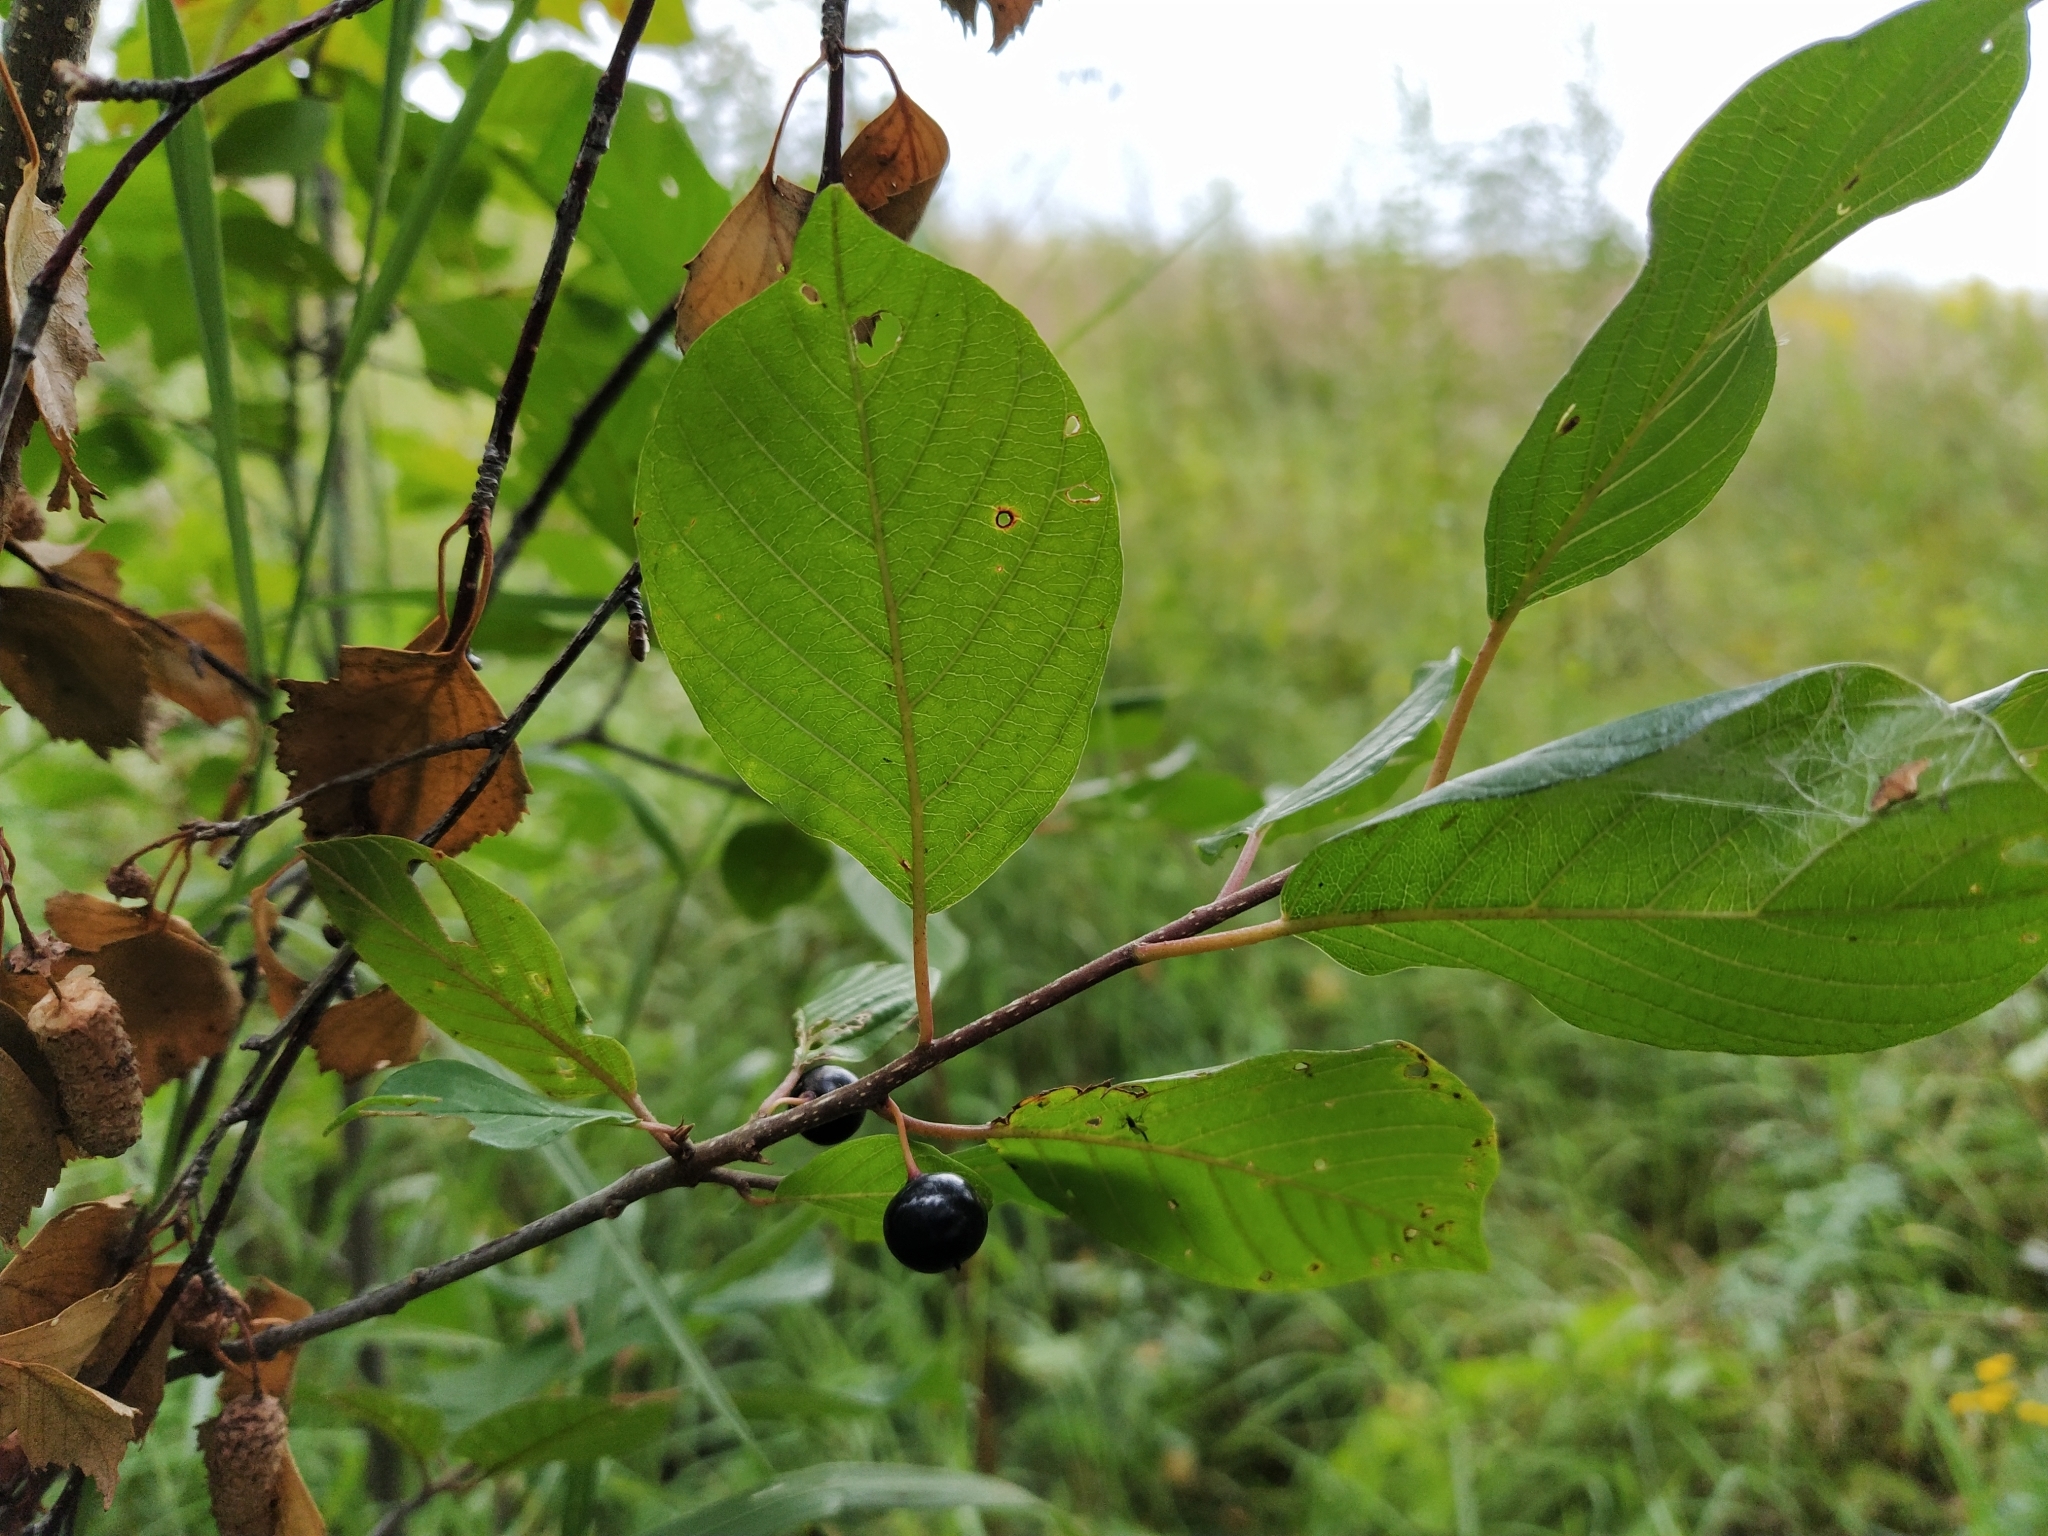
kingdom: Plantae
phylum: Tracheophyta
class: Magnoliopsida
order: Rosales
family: Rhamnaceae
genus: Frangula
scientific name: Frangula alnus
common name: Alder buckthorn
